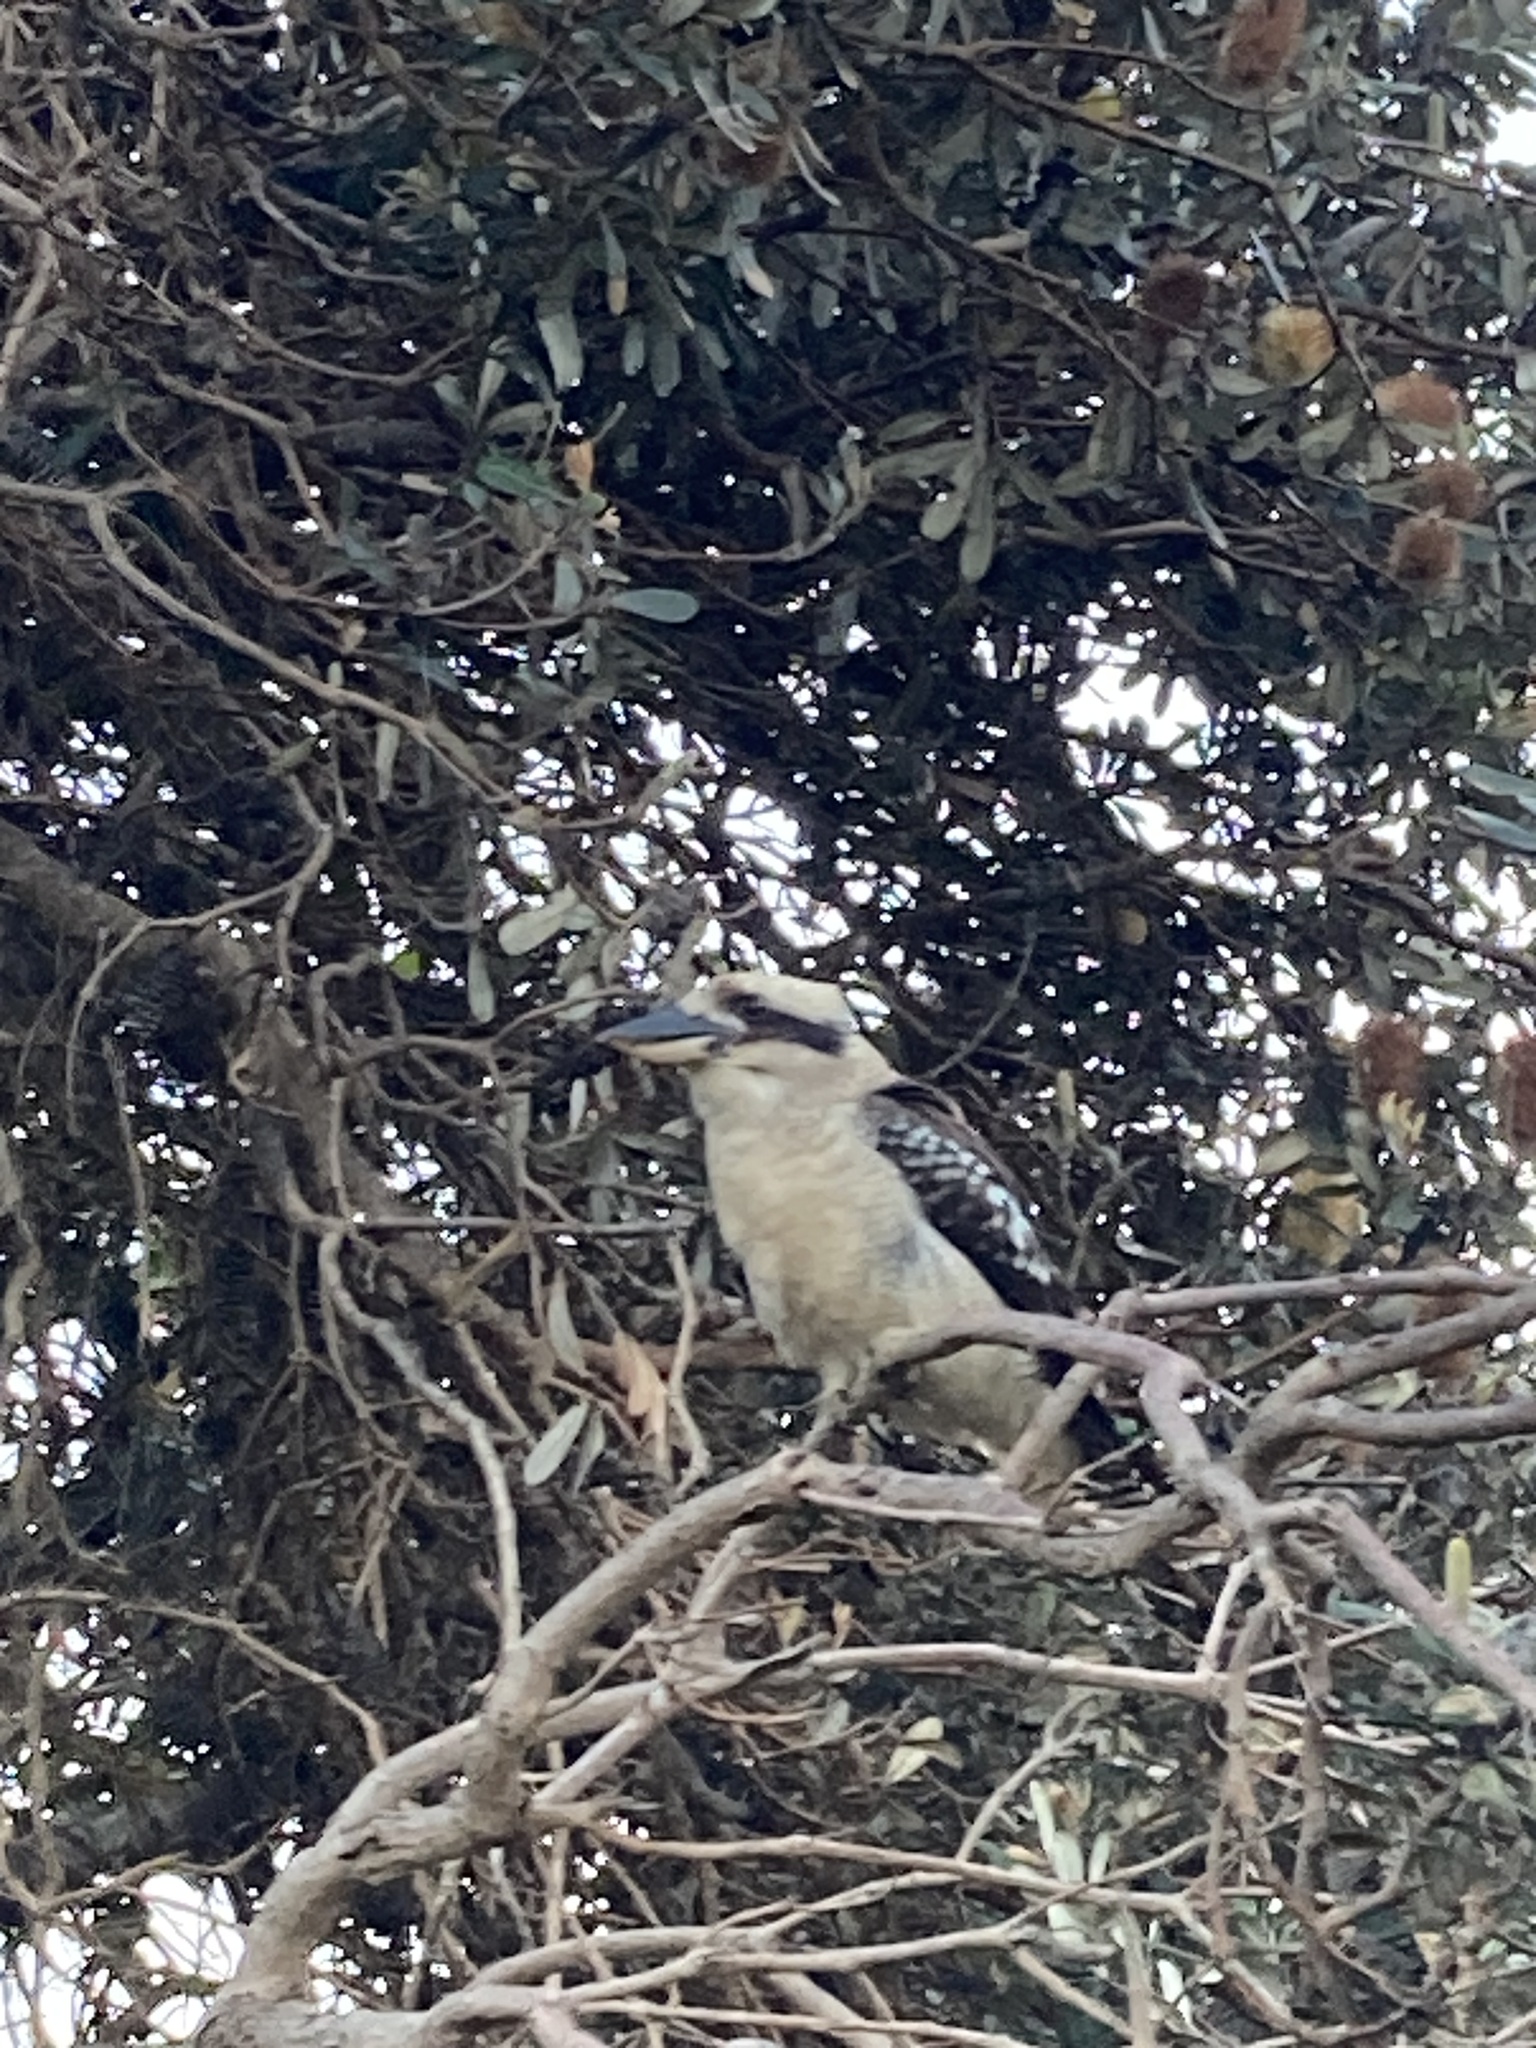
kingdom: Animalia
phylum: Chordata
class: Aves
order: Coraciiformes
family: Alcedinidae
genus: Dacelo
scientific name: Dacelo novaeguineae
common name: Laughing kookaburra
